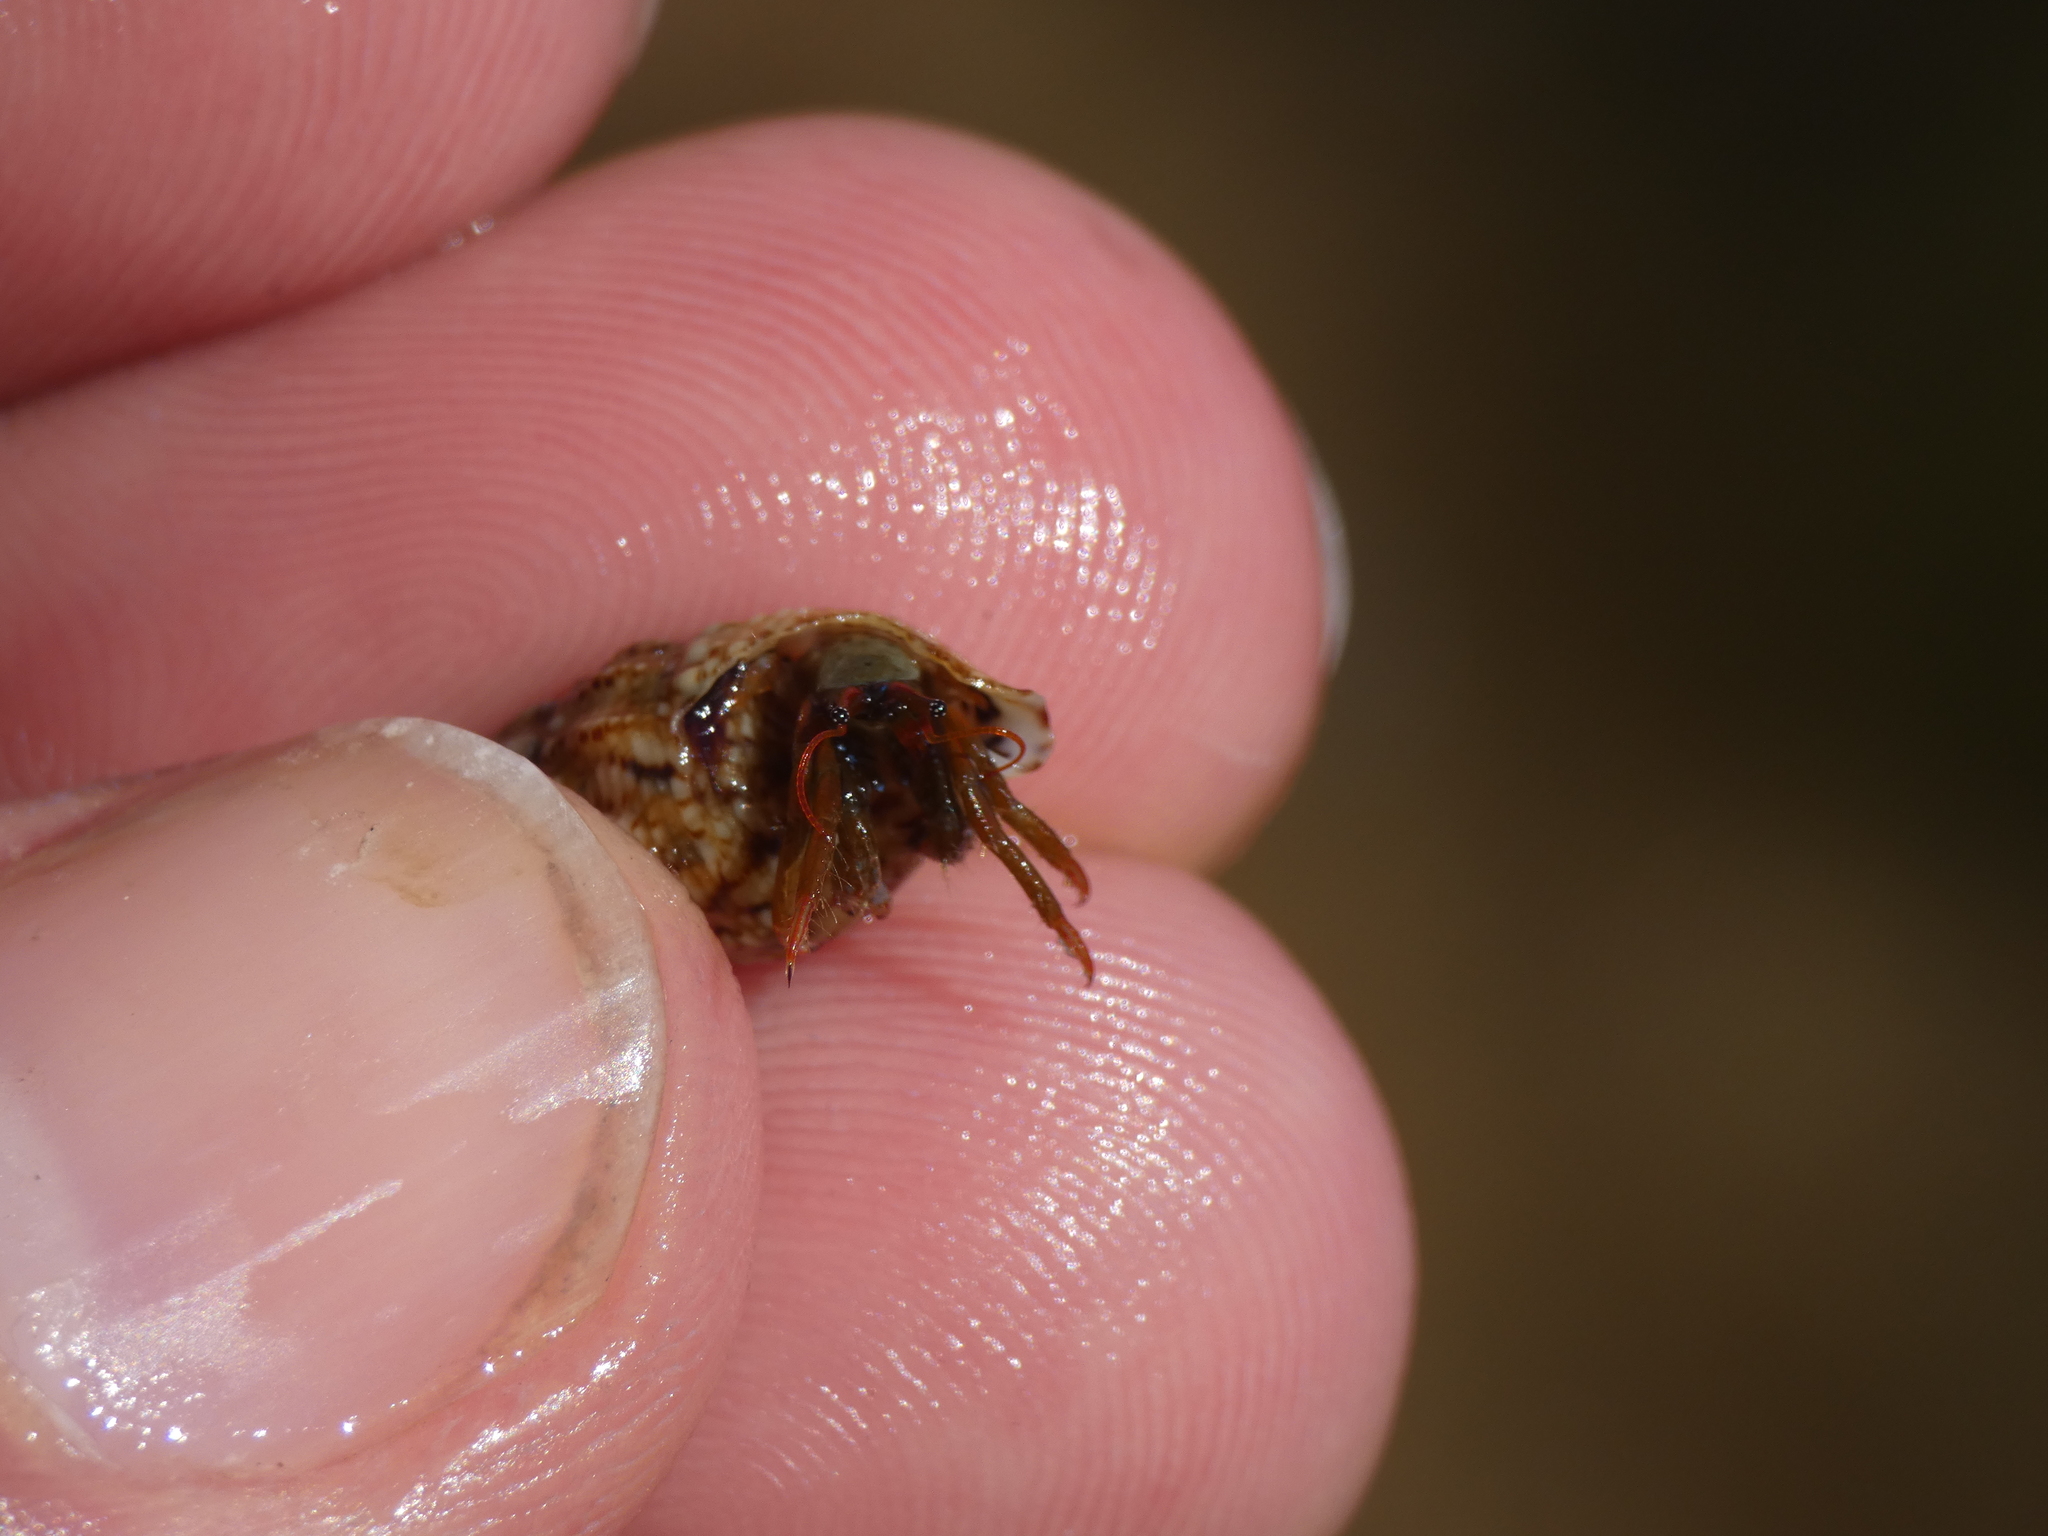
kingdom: Animalia
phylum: Arthropoda
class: Malacostraca
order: Decapoda
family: Diogenidae
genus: Clibanarius
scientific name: Clibanarius erythropus
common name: Hermit crab
